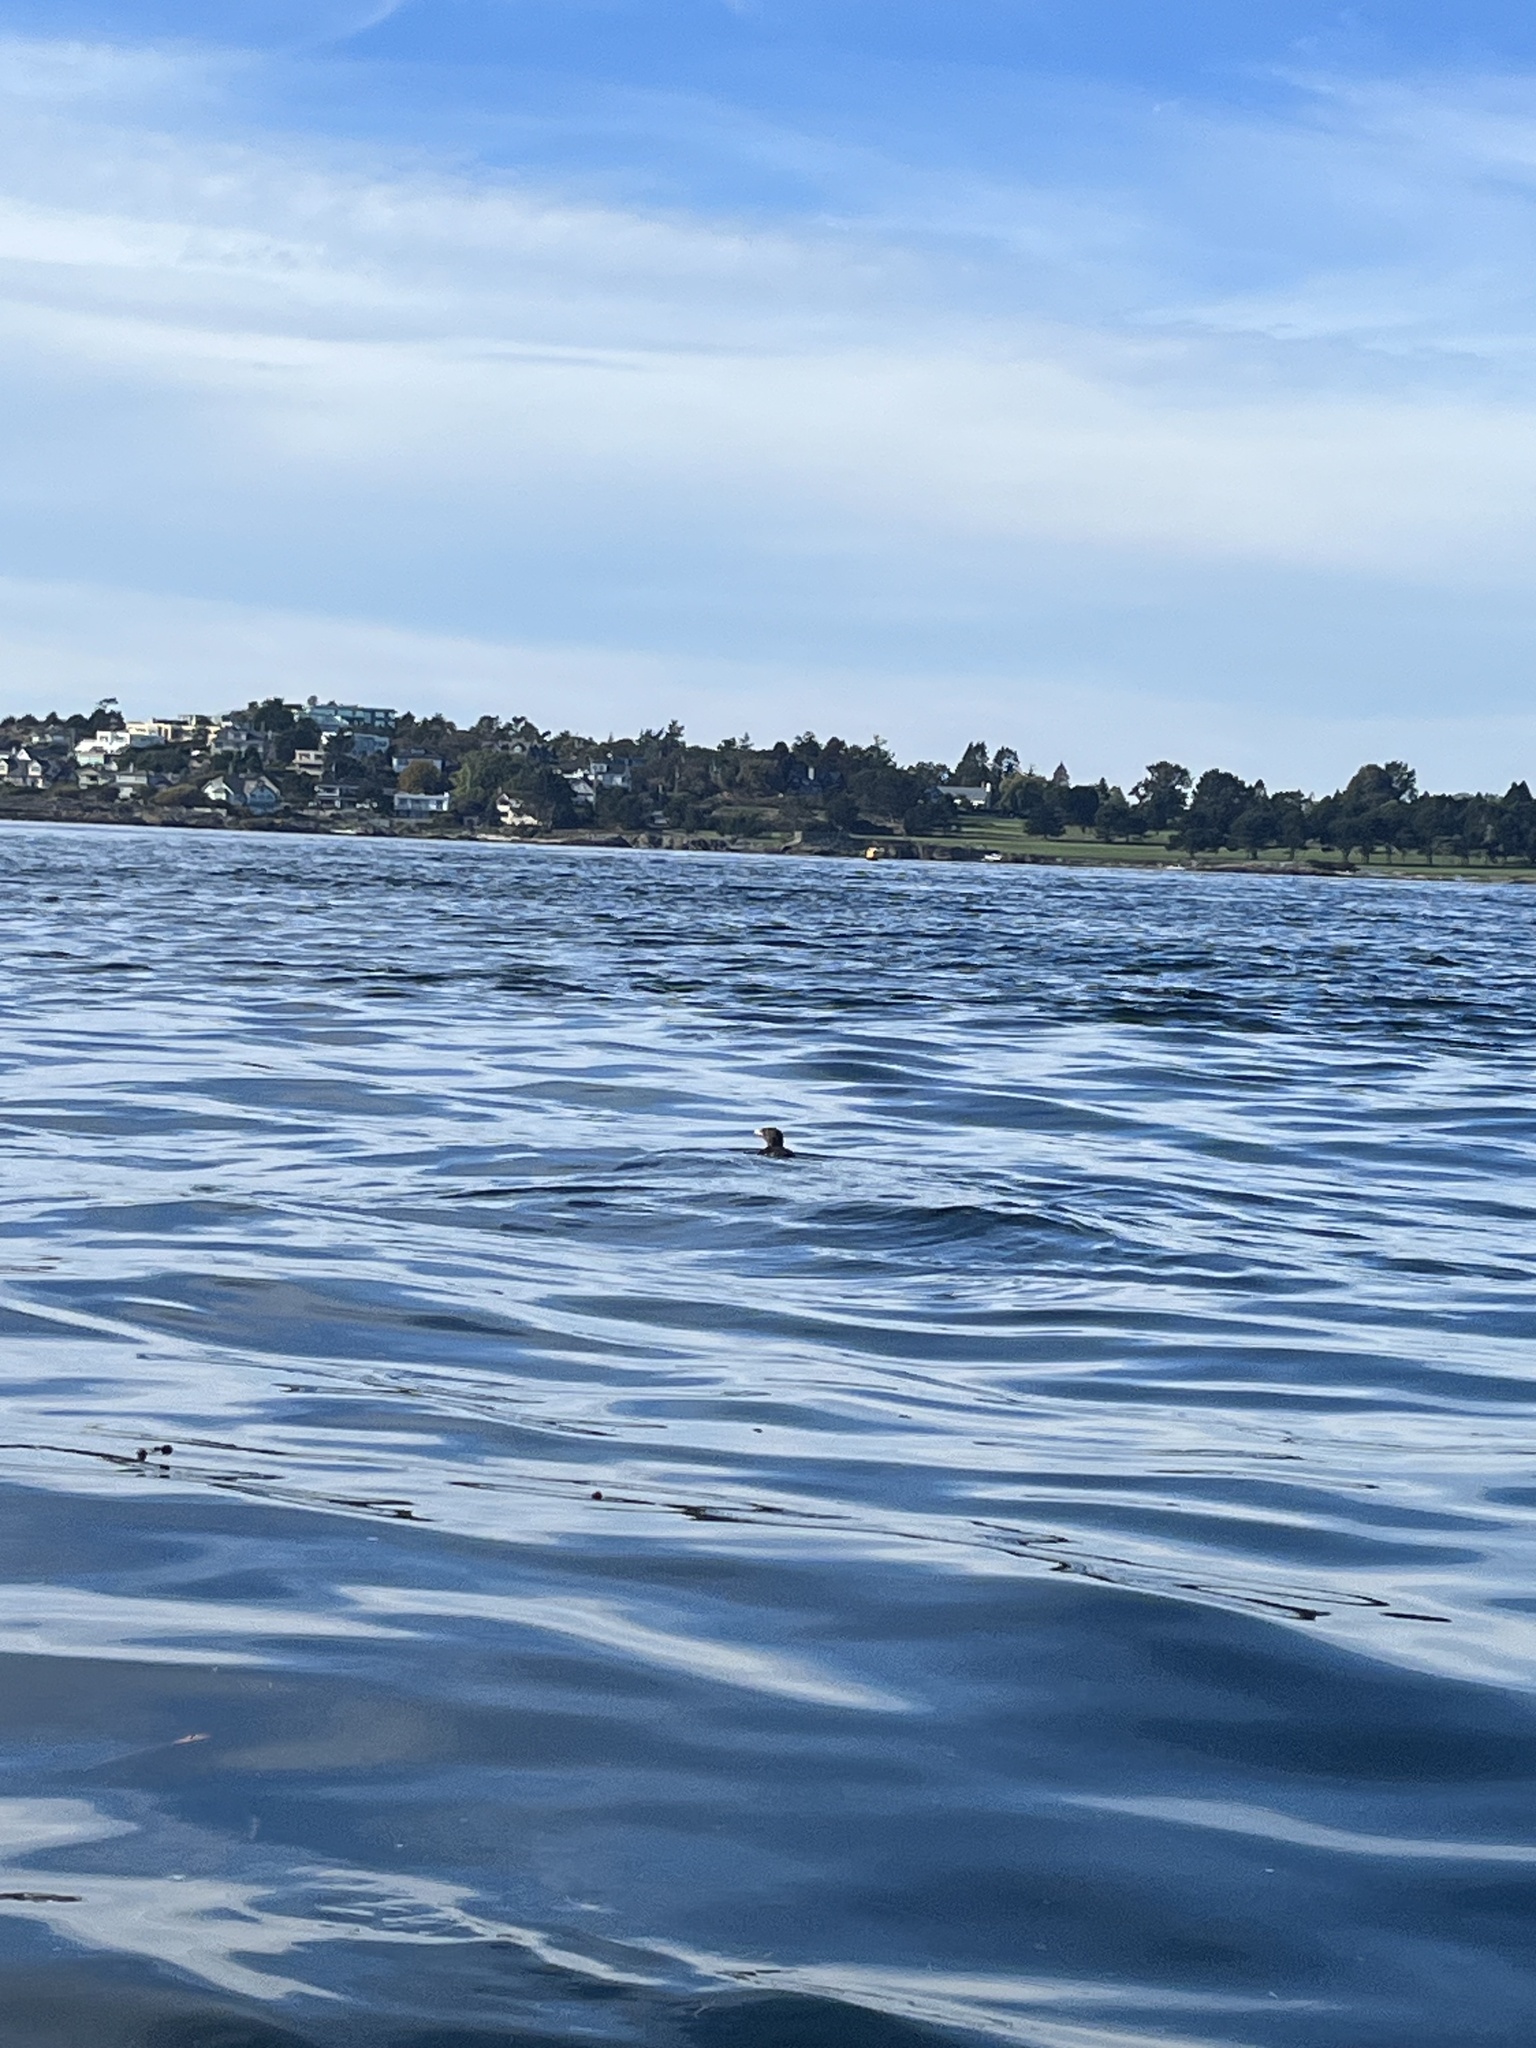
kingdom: Animalia
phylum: Chordata
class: Aves
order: Charadriiformes
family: Alcidae
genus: Cerorhinca
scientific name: Cerorhinca monocerata
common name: Rhinoceros auklet
